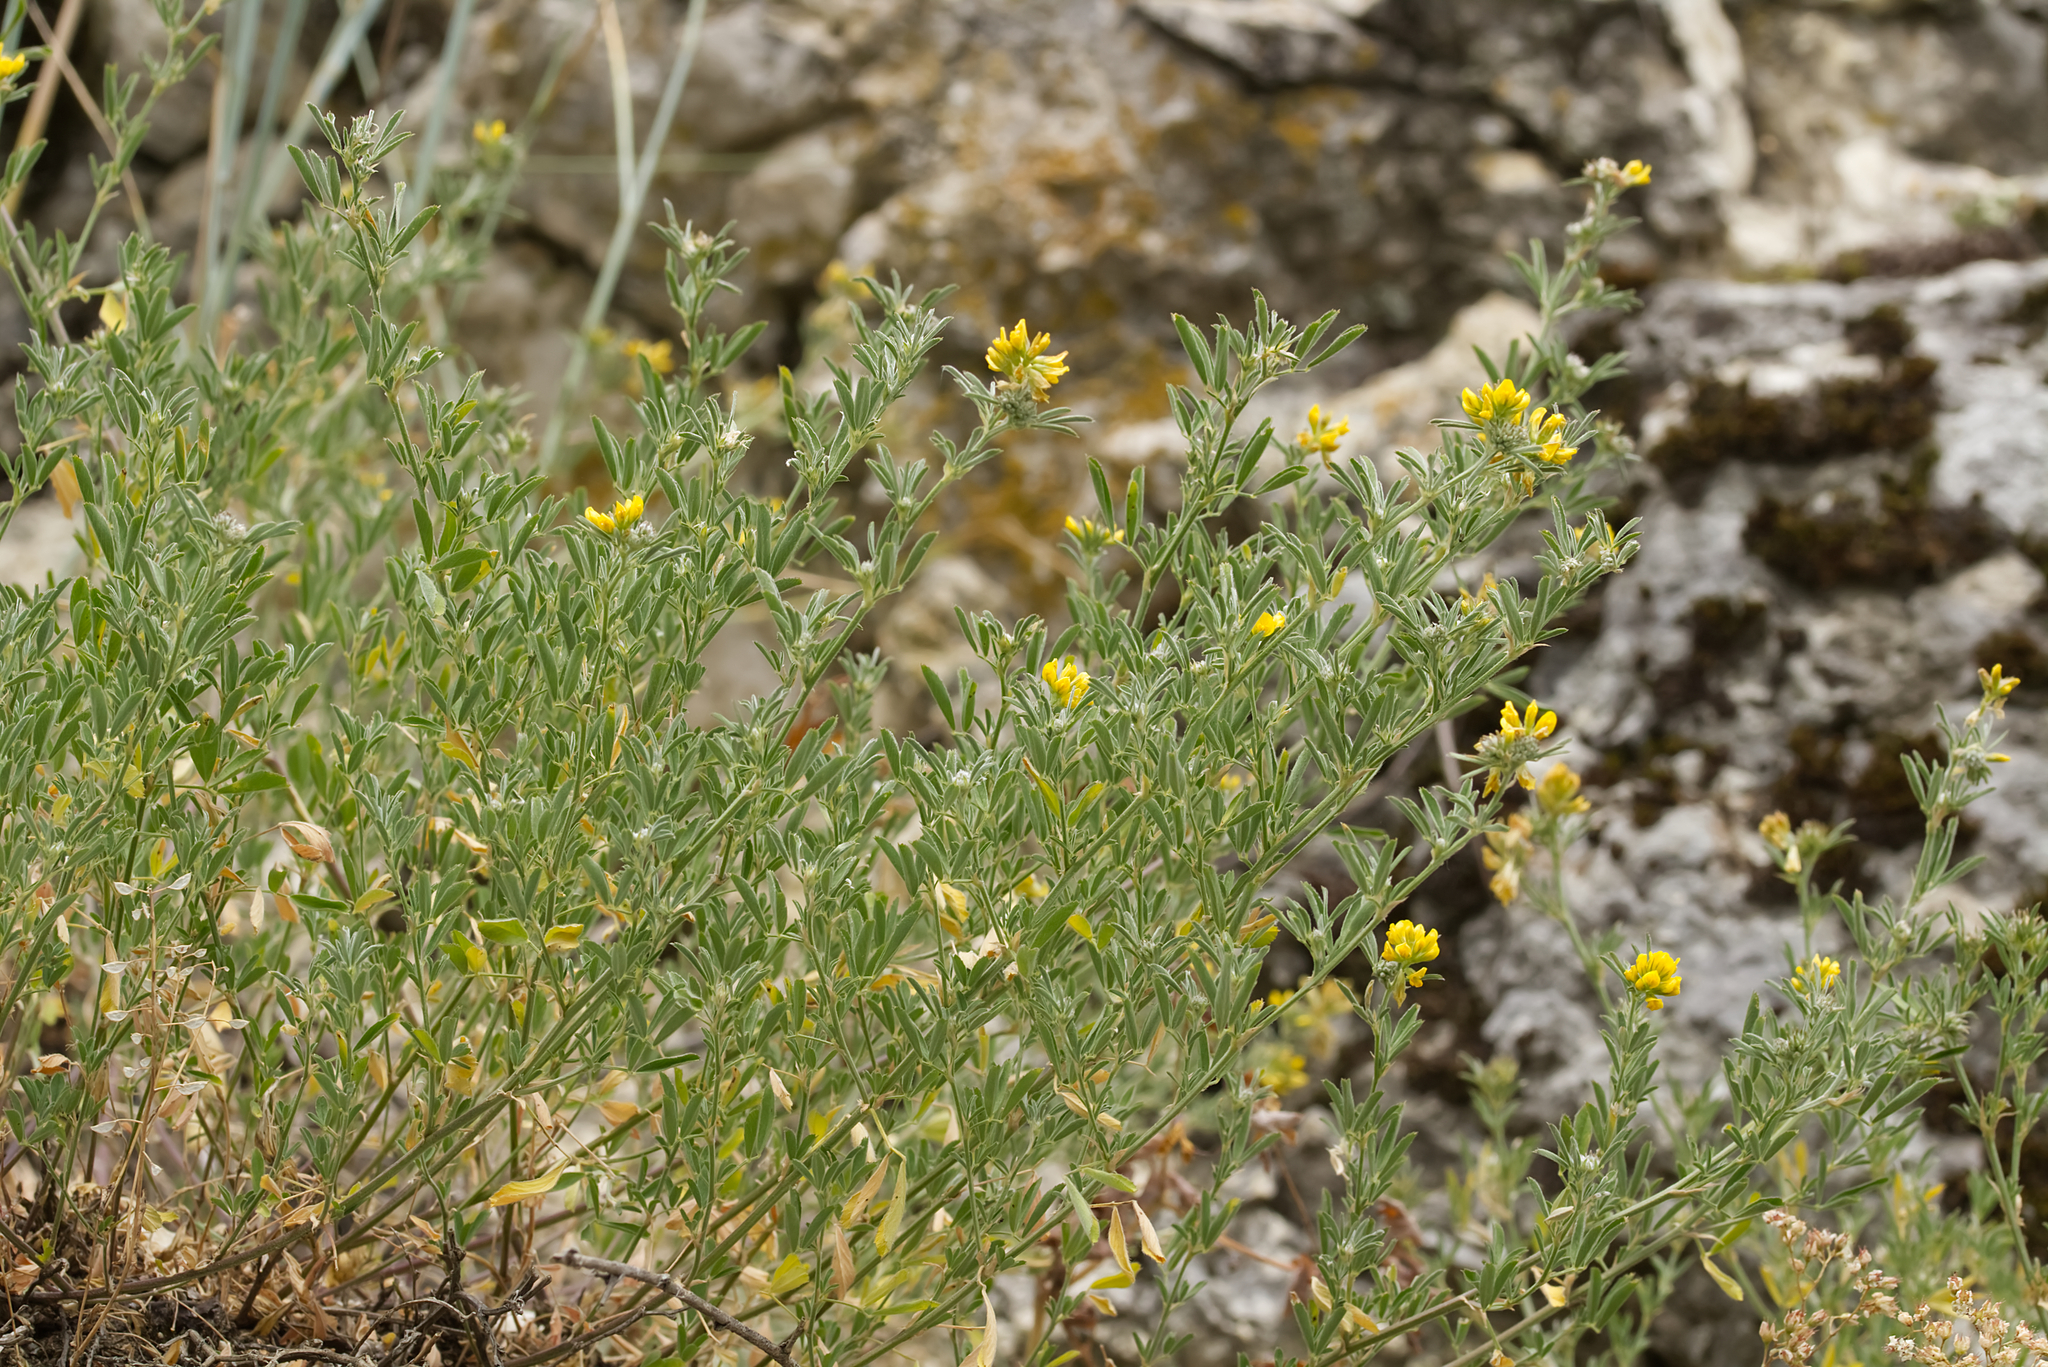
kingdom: Plantae
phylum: Tracheophyta
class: Magnoliopsida
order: Fabales
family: Fabaceae
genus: Medicago
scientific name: Medicago falcata
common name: Sickle medick
